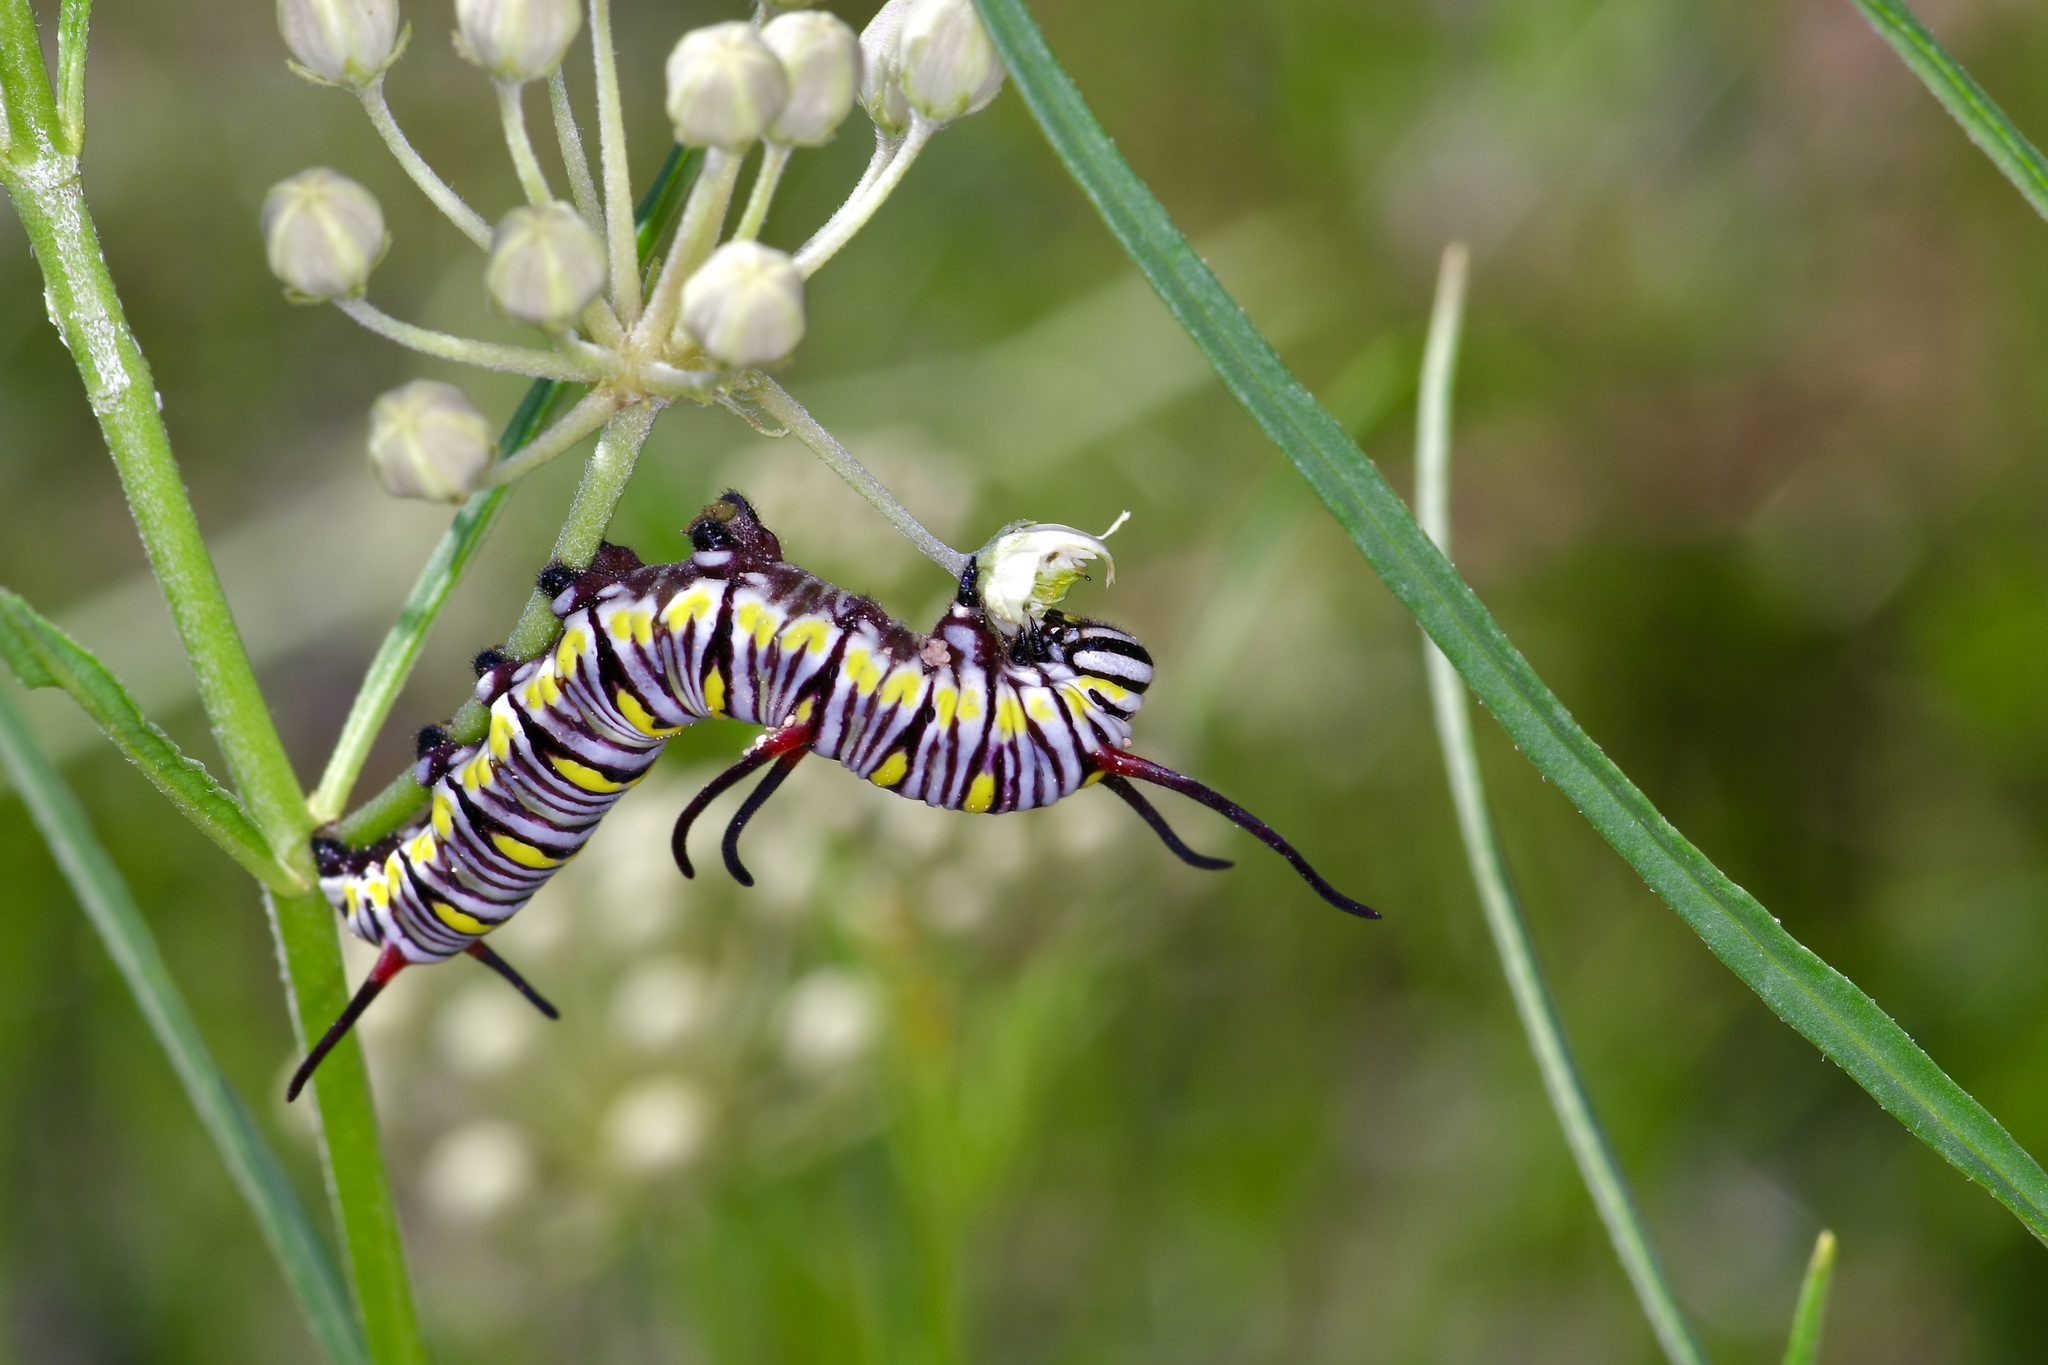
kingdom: Animalia
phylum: Arthropoda
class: Insecta
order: Lepidoptera
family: Nymphalidae
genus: Danaus
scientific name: Danaus gilippus
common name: Queen
